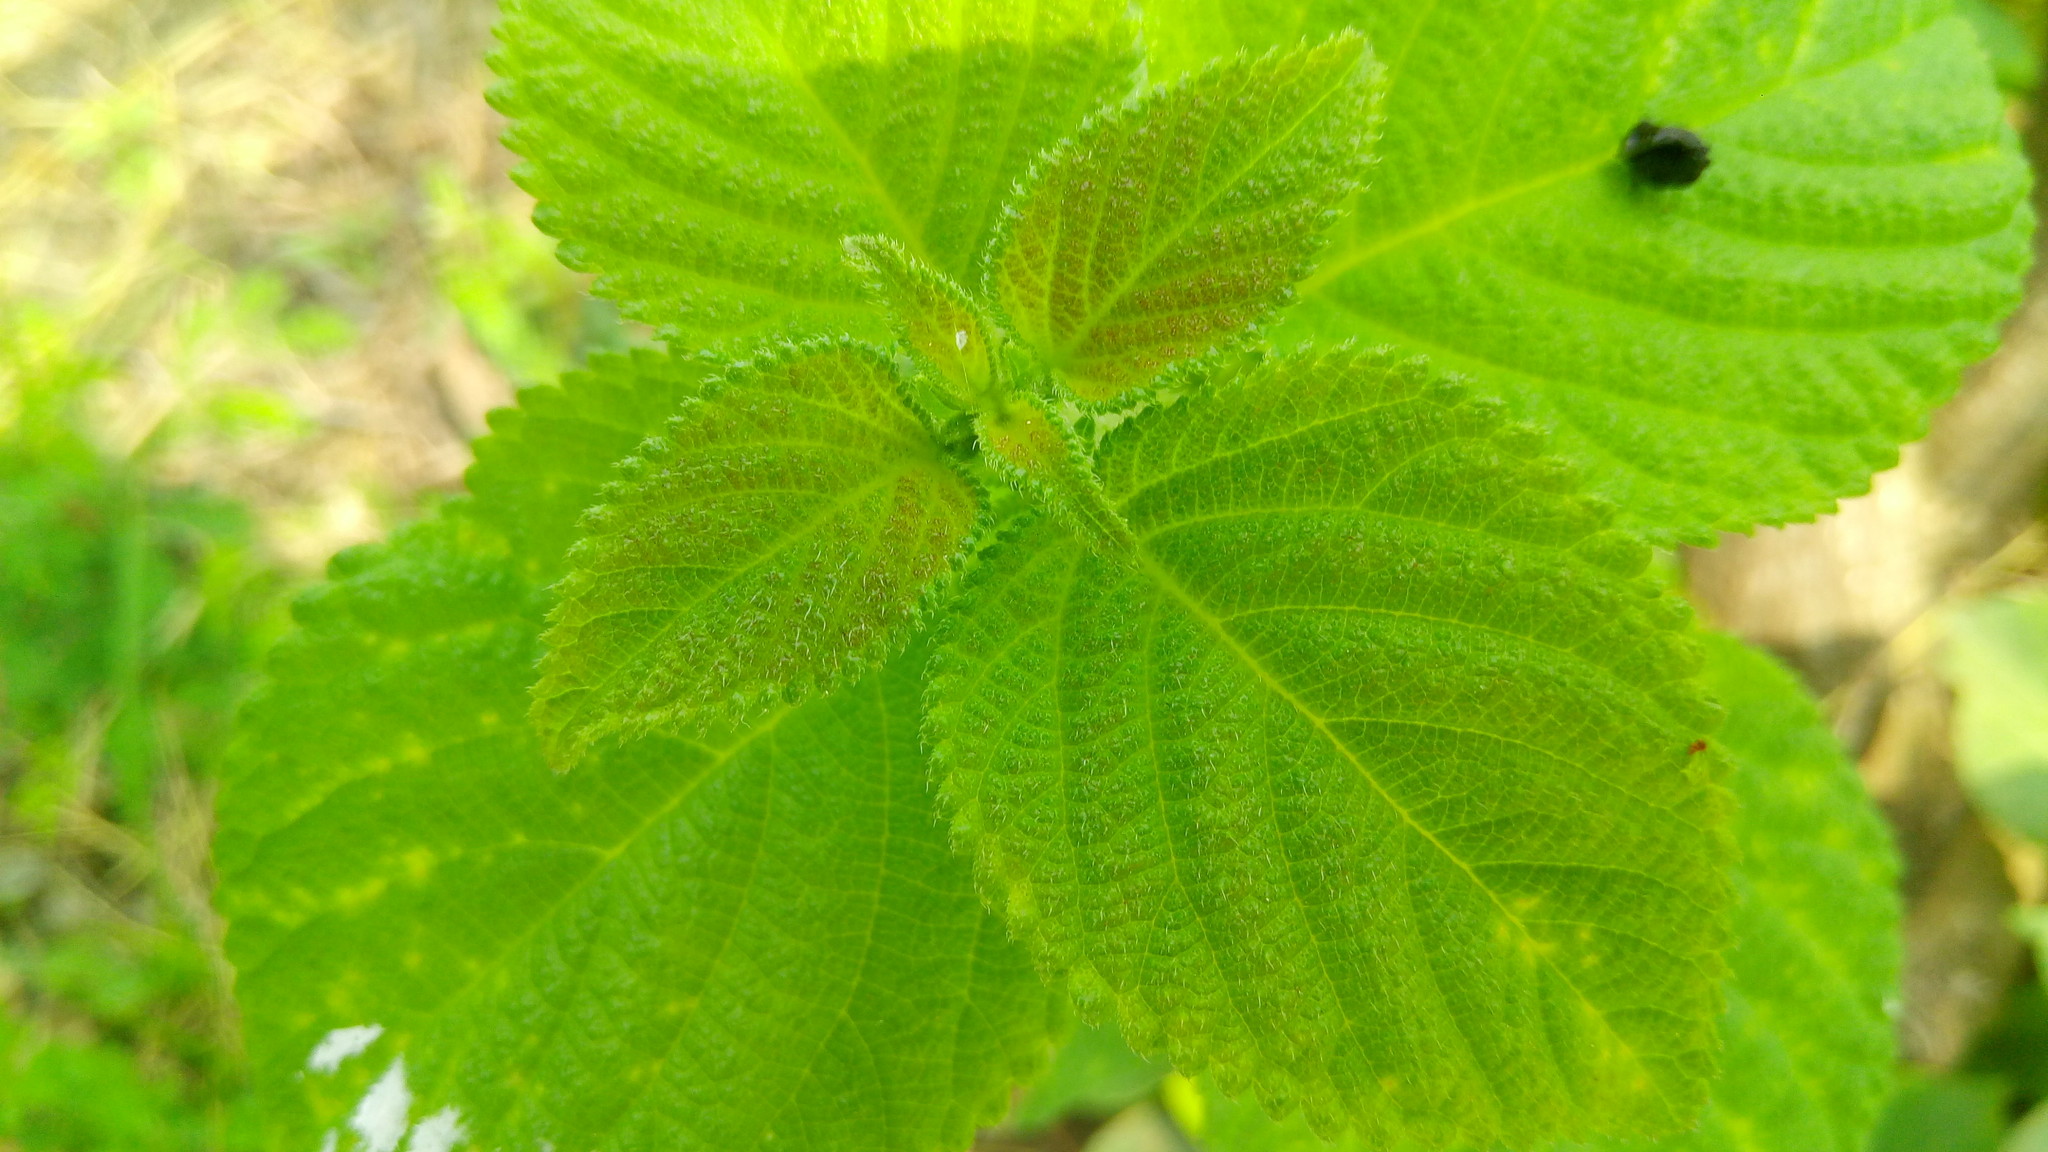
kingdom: Plantae
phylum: Tracheophyta
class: Magnoliopsida
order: Lamiales
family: Verbenaceae
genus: Lantana
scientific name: Lantana camara
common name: Lantana
